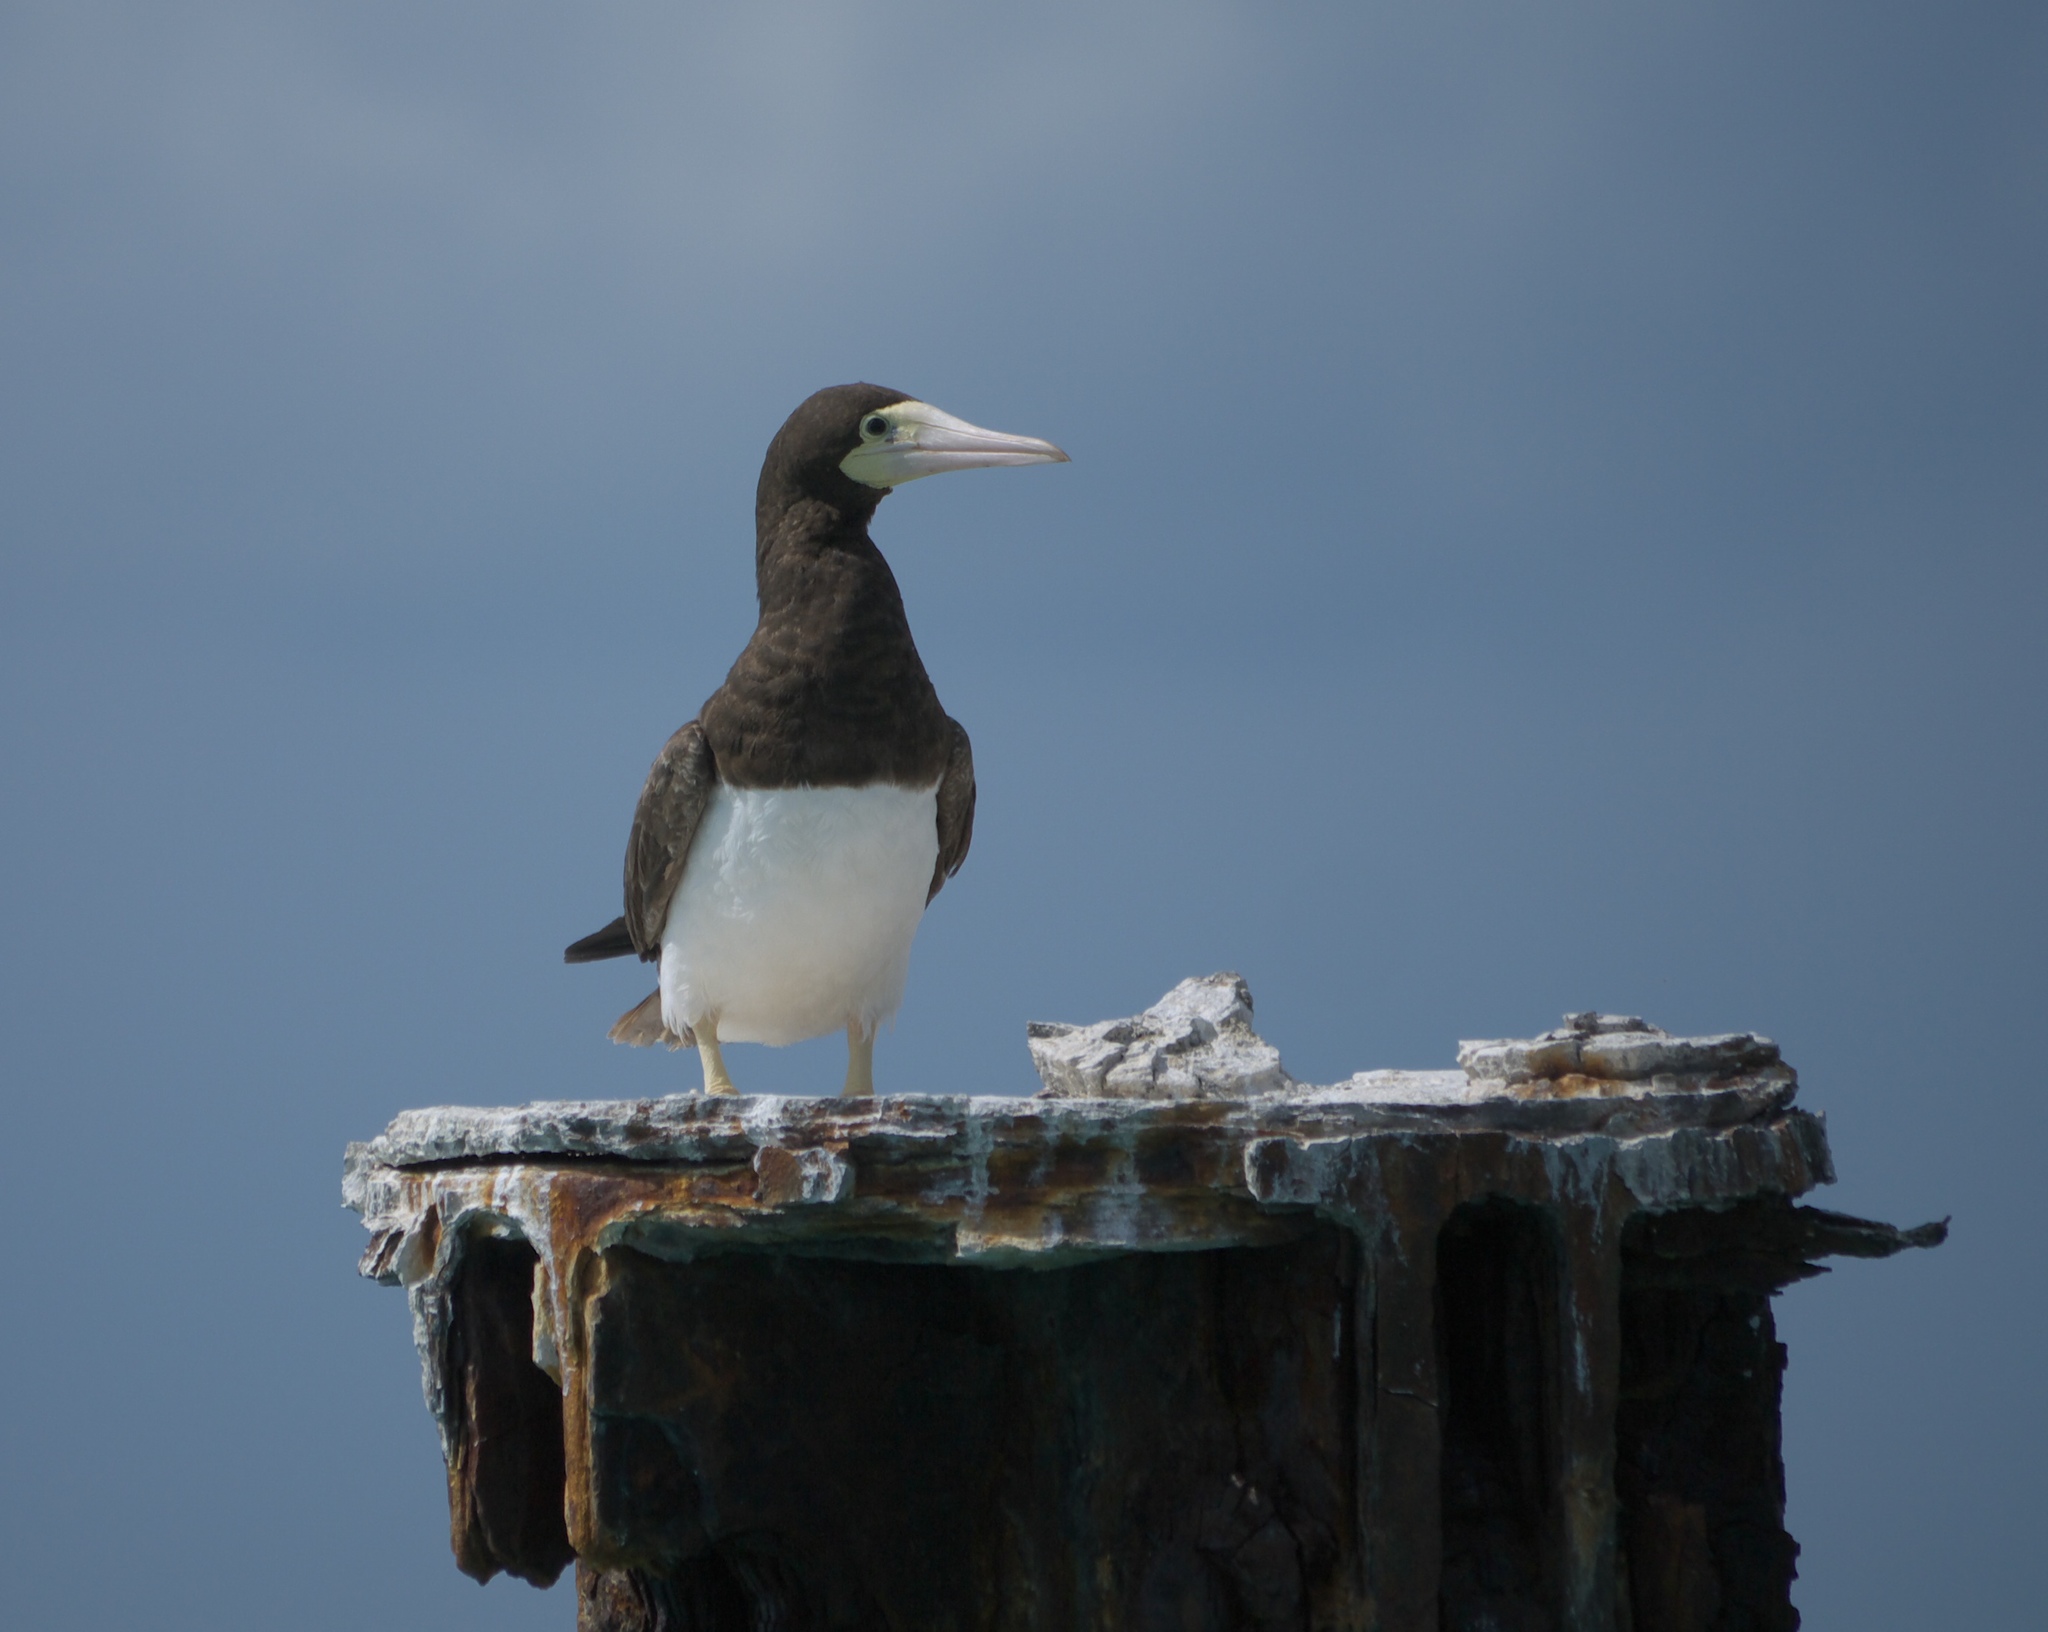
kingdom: Animalia
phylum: Chordata
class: Aves
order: Suliformes
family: Sulidae
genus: Sula
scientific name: Sula leucogaster
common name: Brown booby
